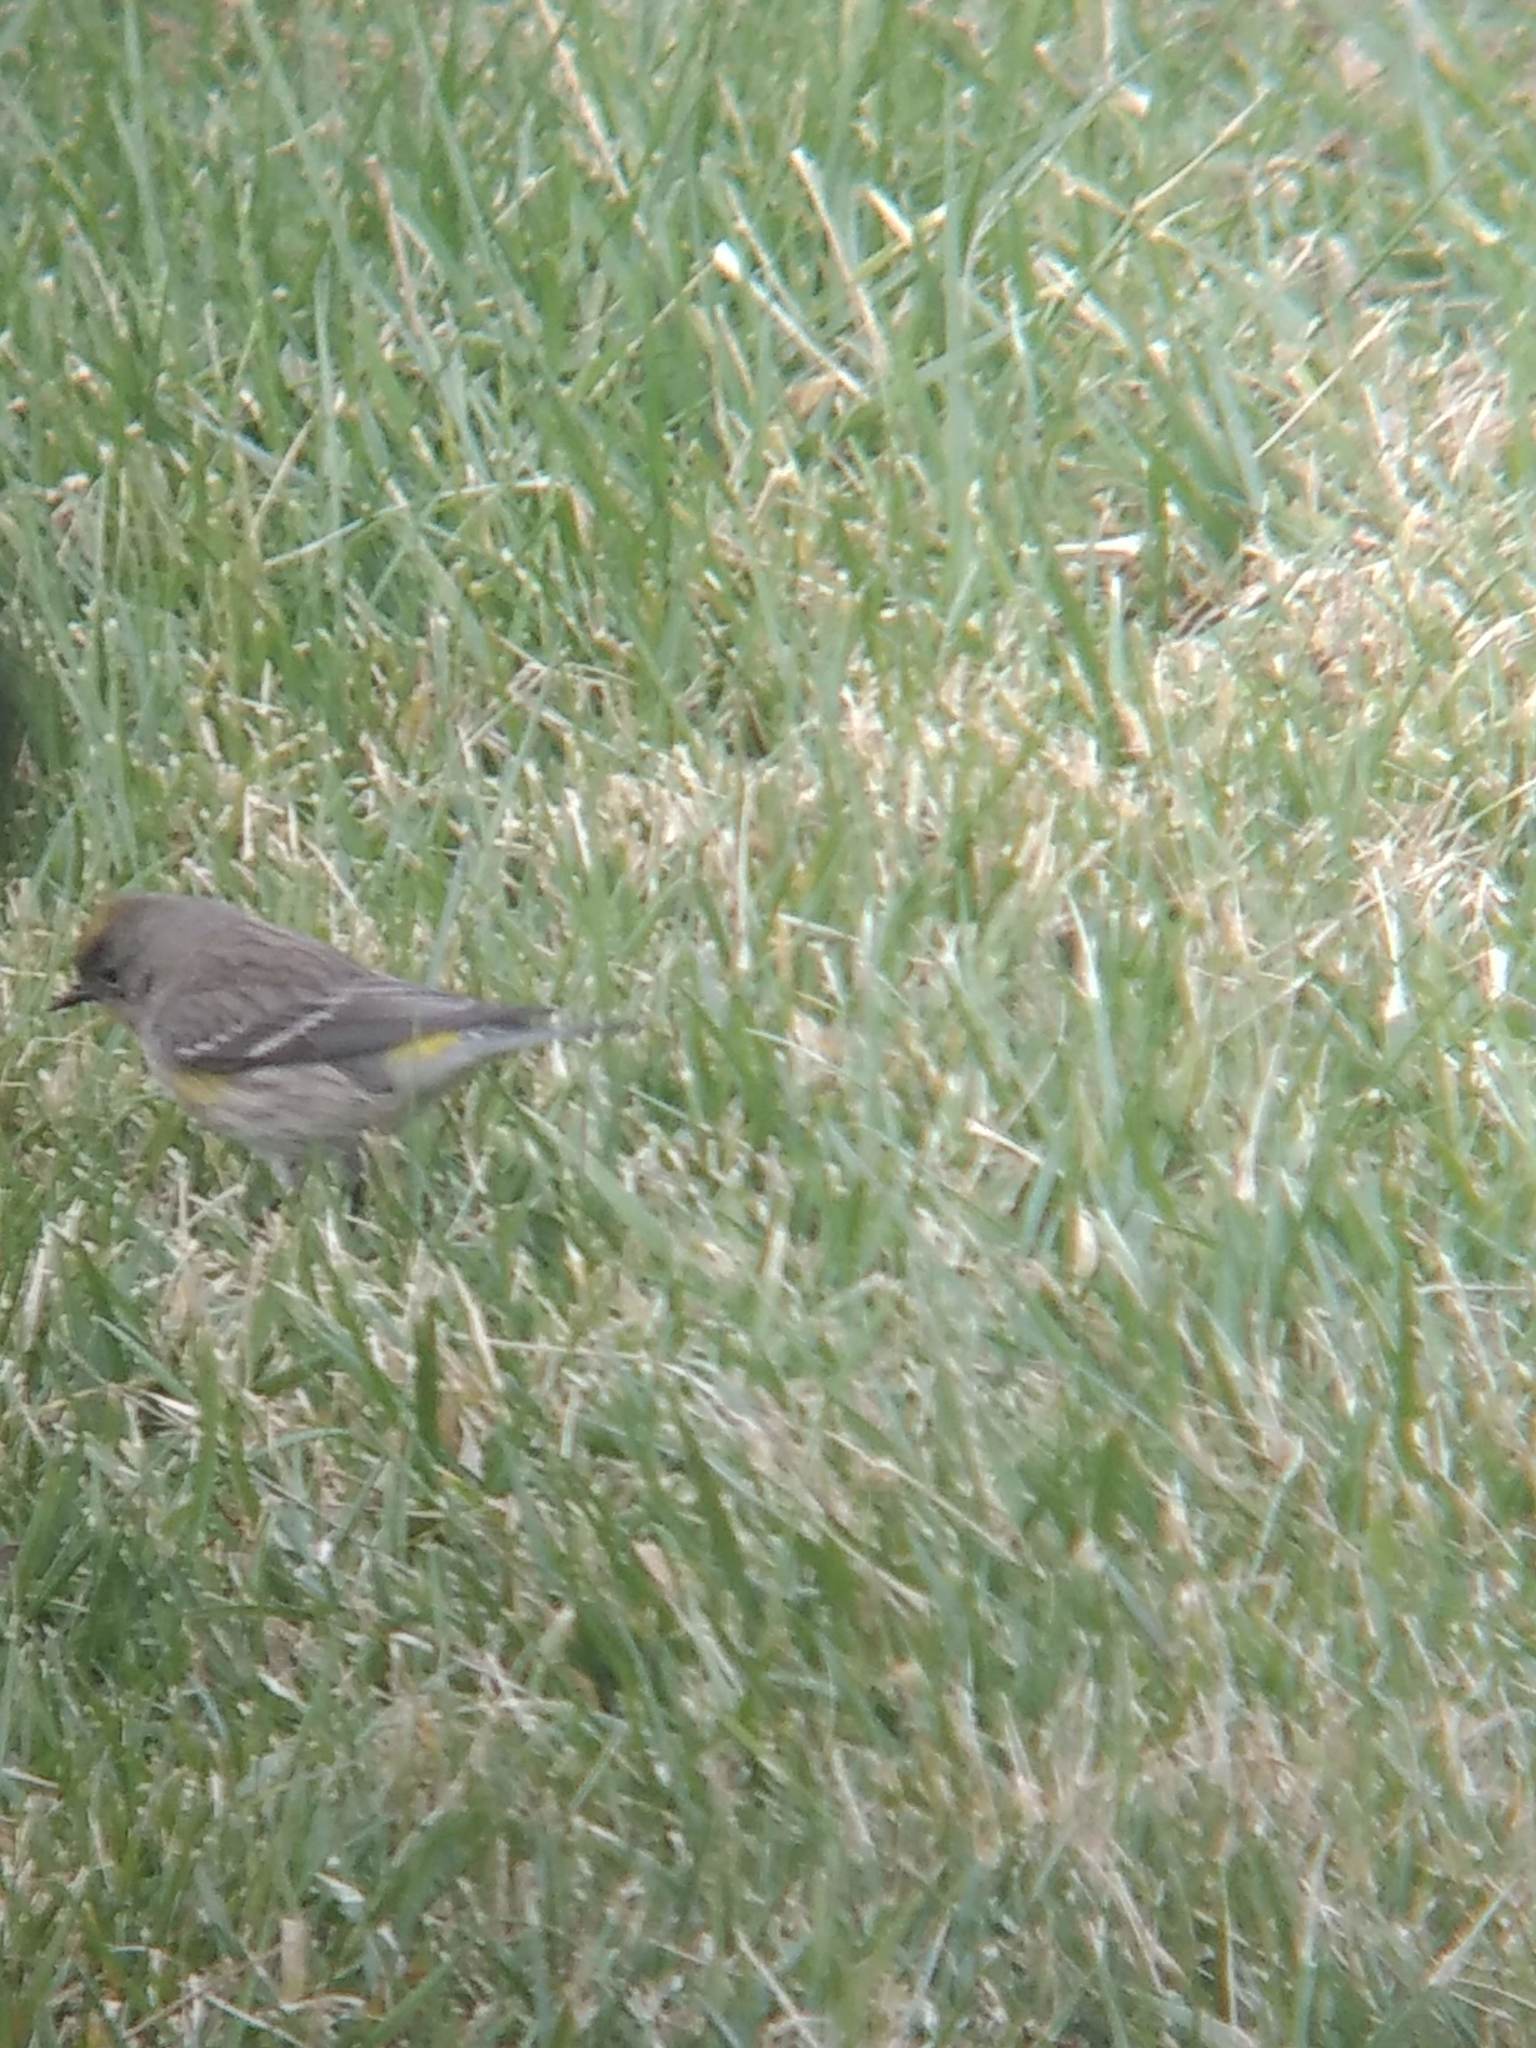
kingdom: Animalia
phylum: Chordata
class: Aves
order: Passeriformes
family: Parulidae
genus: Setophaga
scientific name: Setophaga coronata
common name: Myrtle warbler
